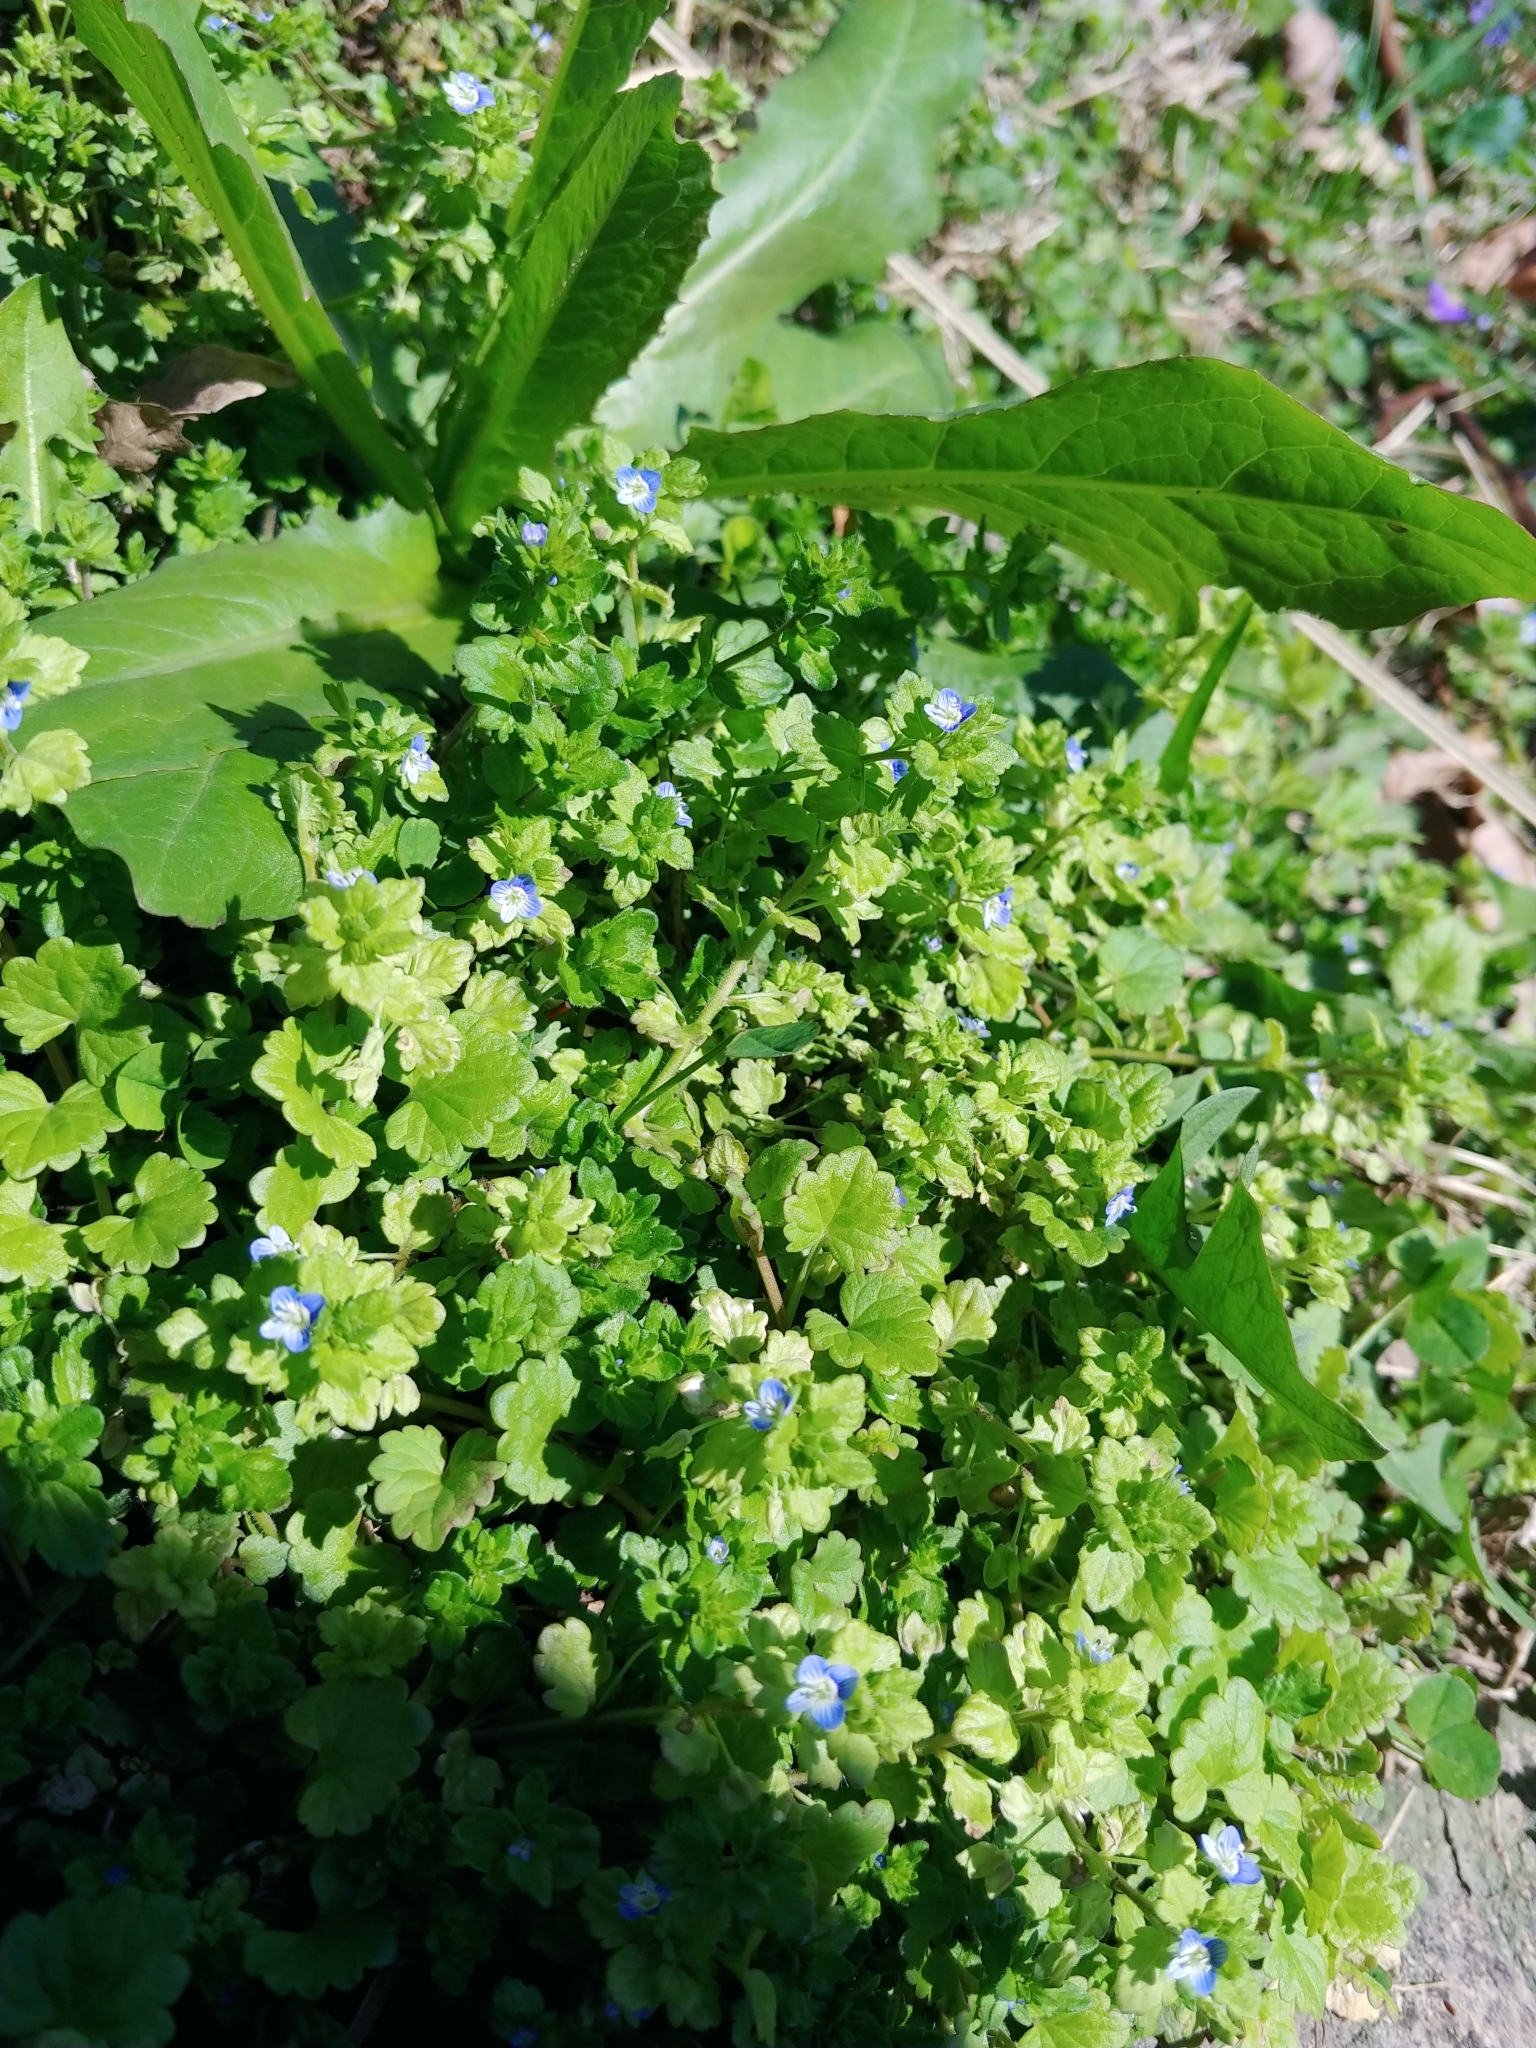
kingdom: Plantae
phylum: Tracheophyta
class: Magnoliopsida
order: Lamiales
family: Plantaginaceae
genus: Veronica
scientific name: Veronica persica
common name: Common field-speedwell
